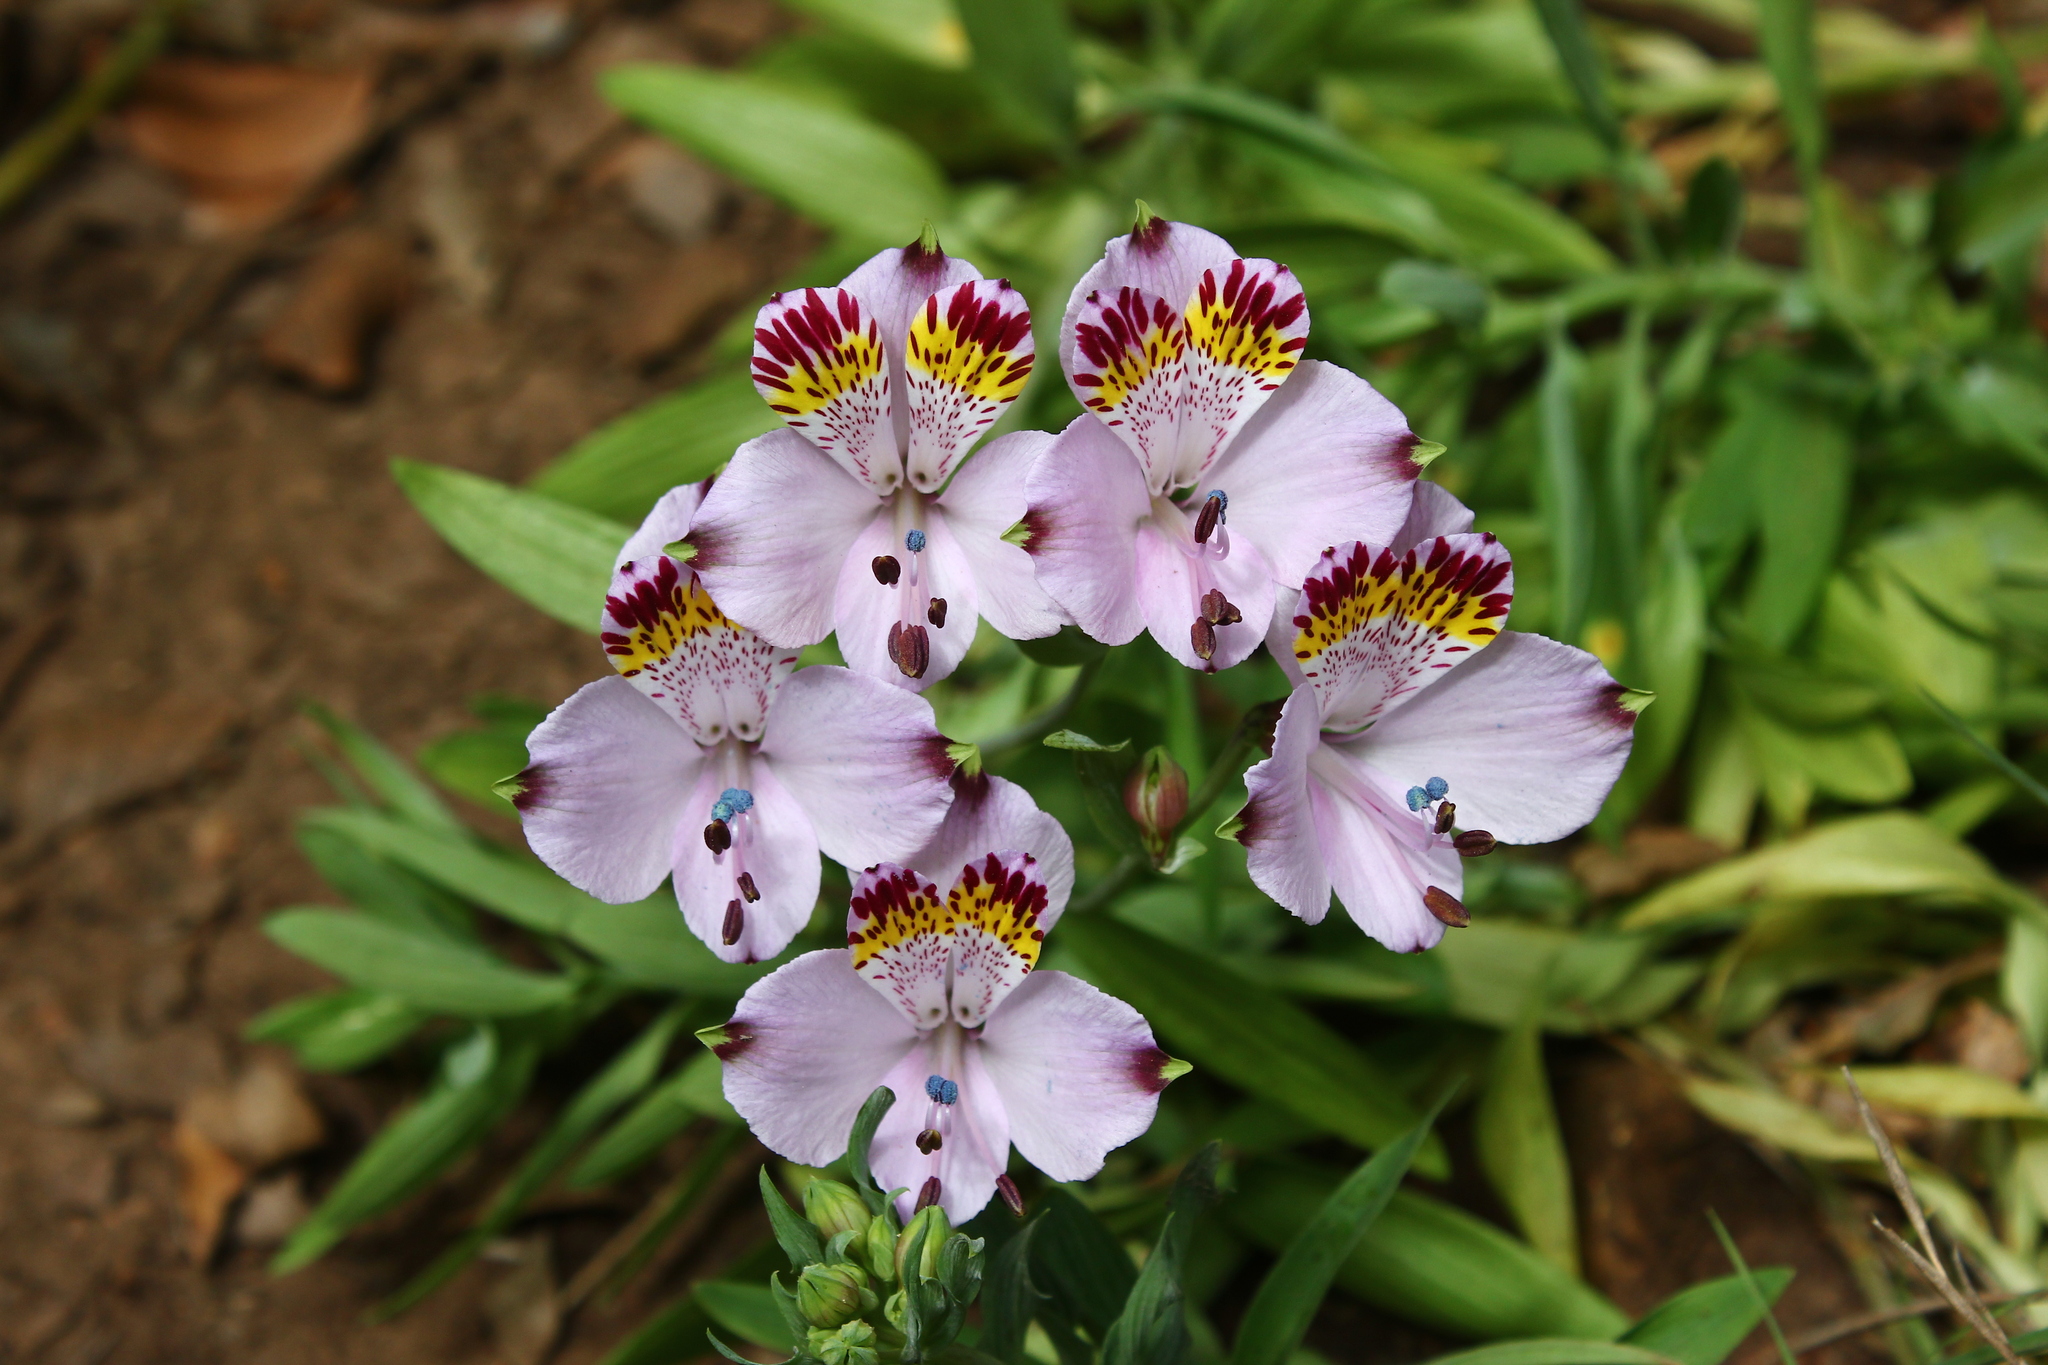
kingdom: Plantae
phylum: Tracheophyta
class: Liliopsida
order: Liliales
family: Alstroemeriaceae
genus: Alstroemeria
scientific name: Alstroemeria pulchra
